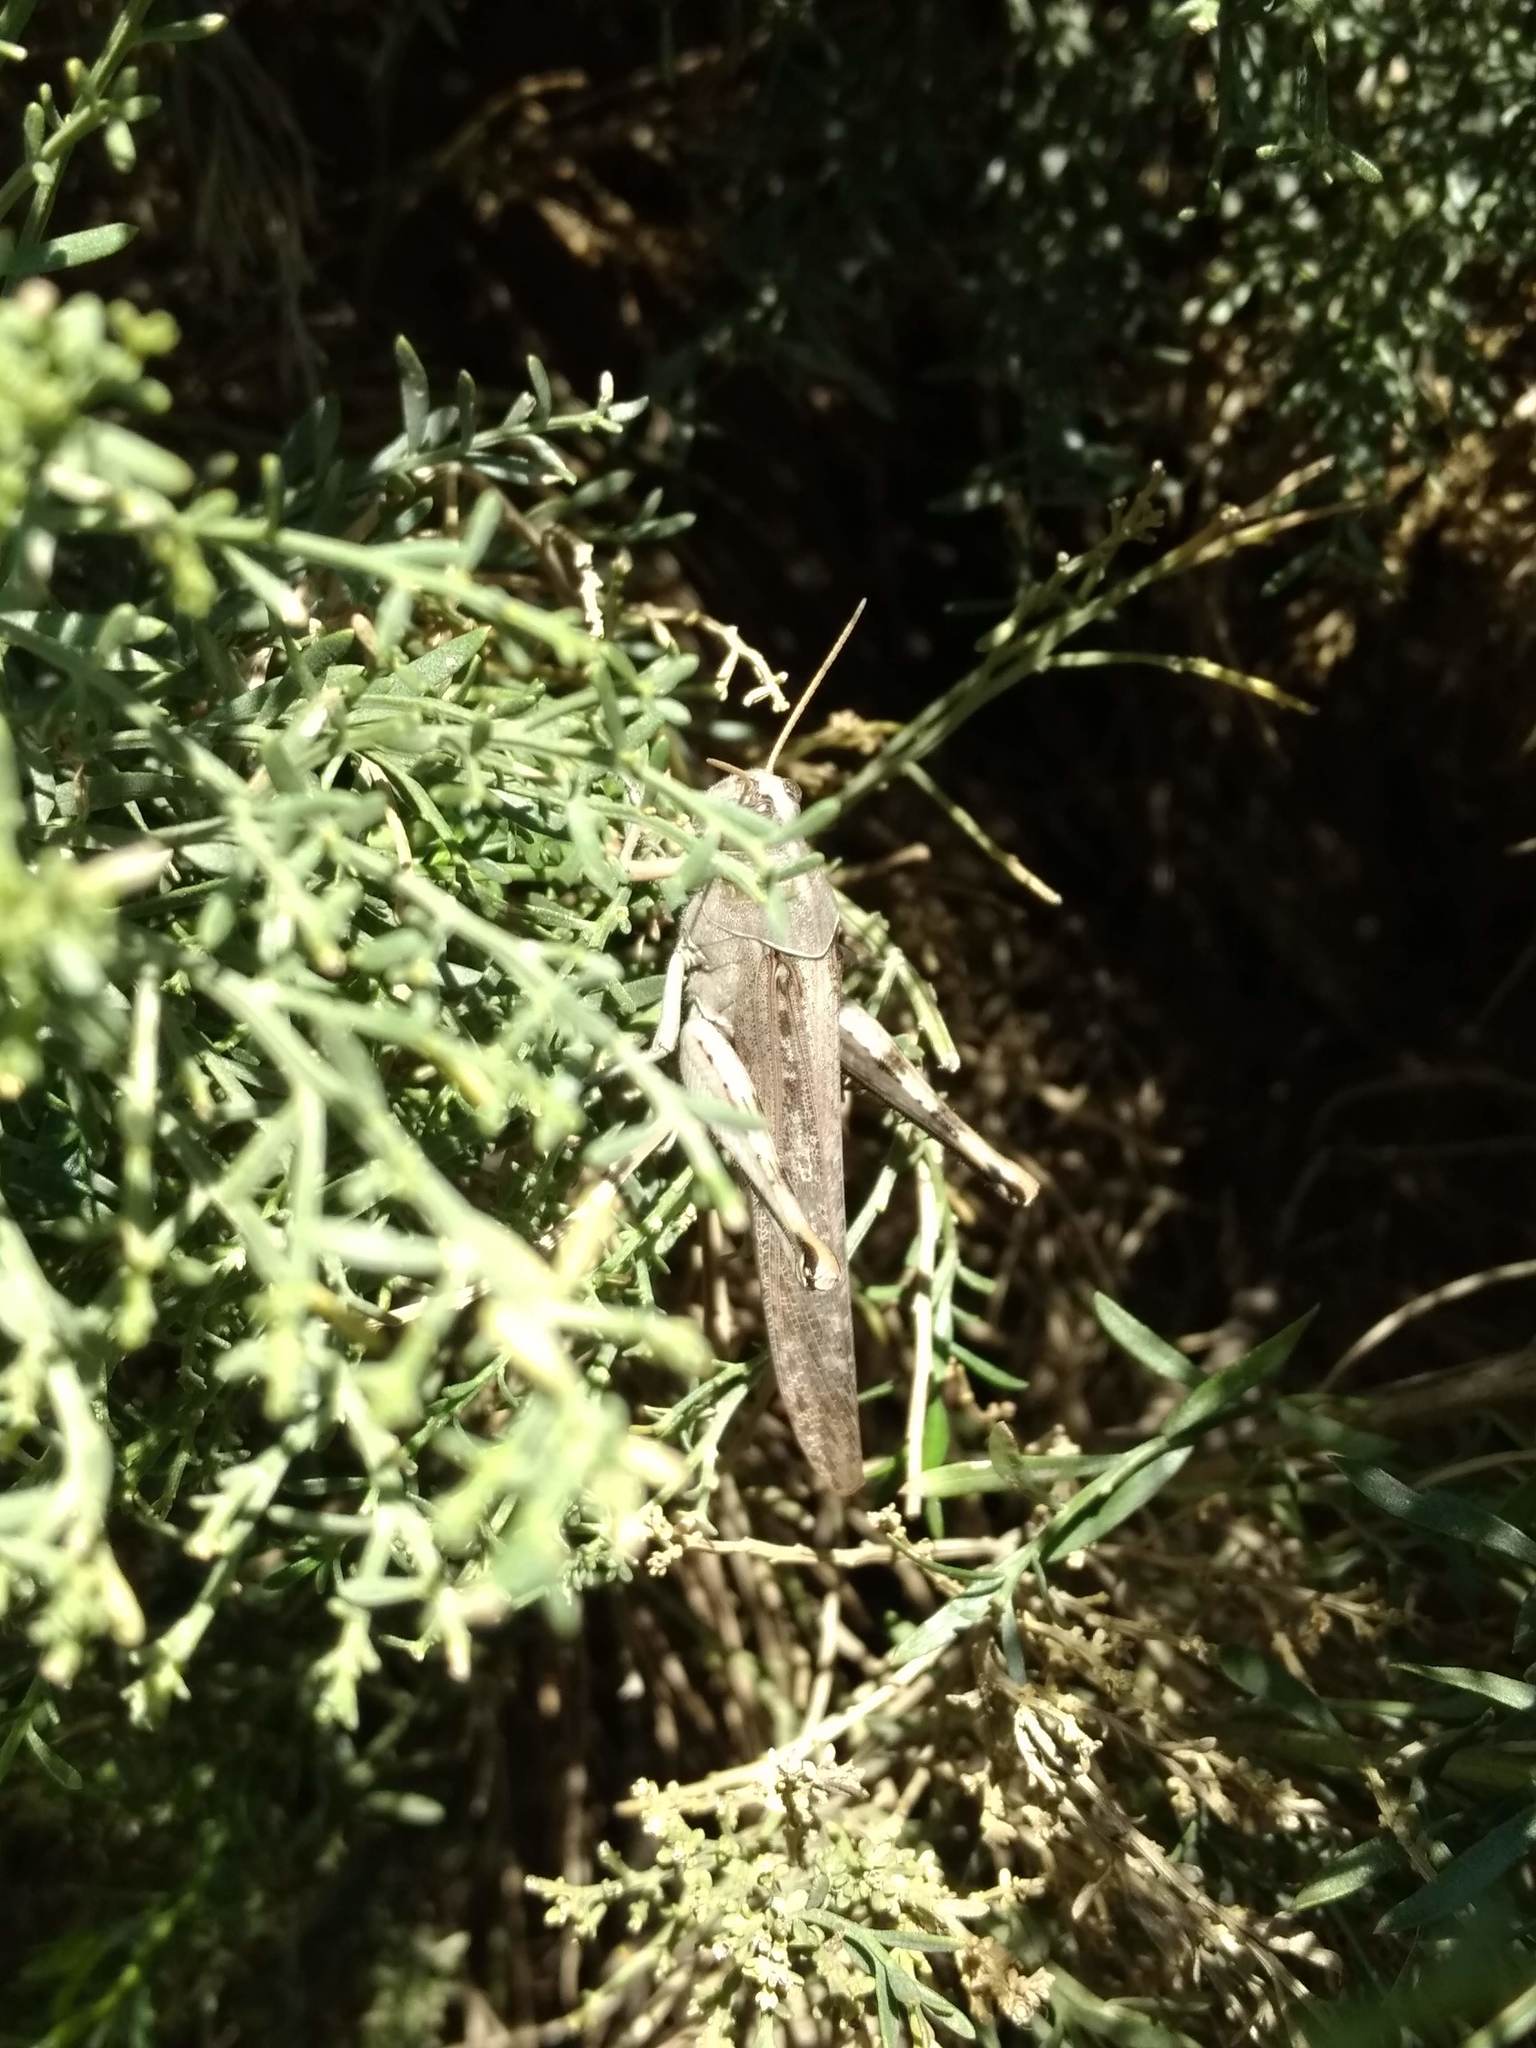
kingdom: Animalia
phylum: Arthropoda
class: Insecta
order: Orthoptera
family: Acrididae
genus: Schistocerca
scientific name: Schistocerca nitens
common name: Vagrant grasshopper
